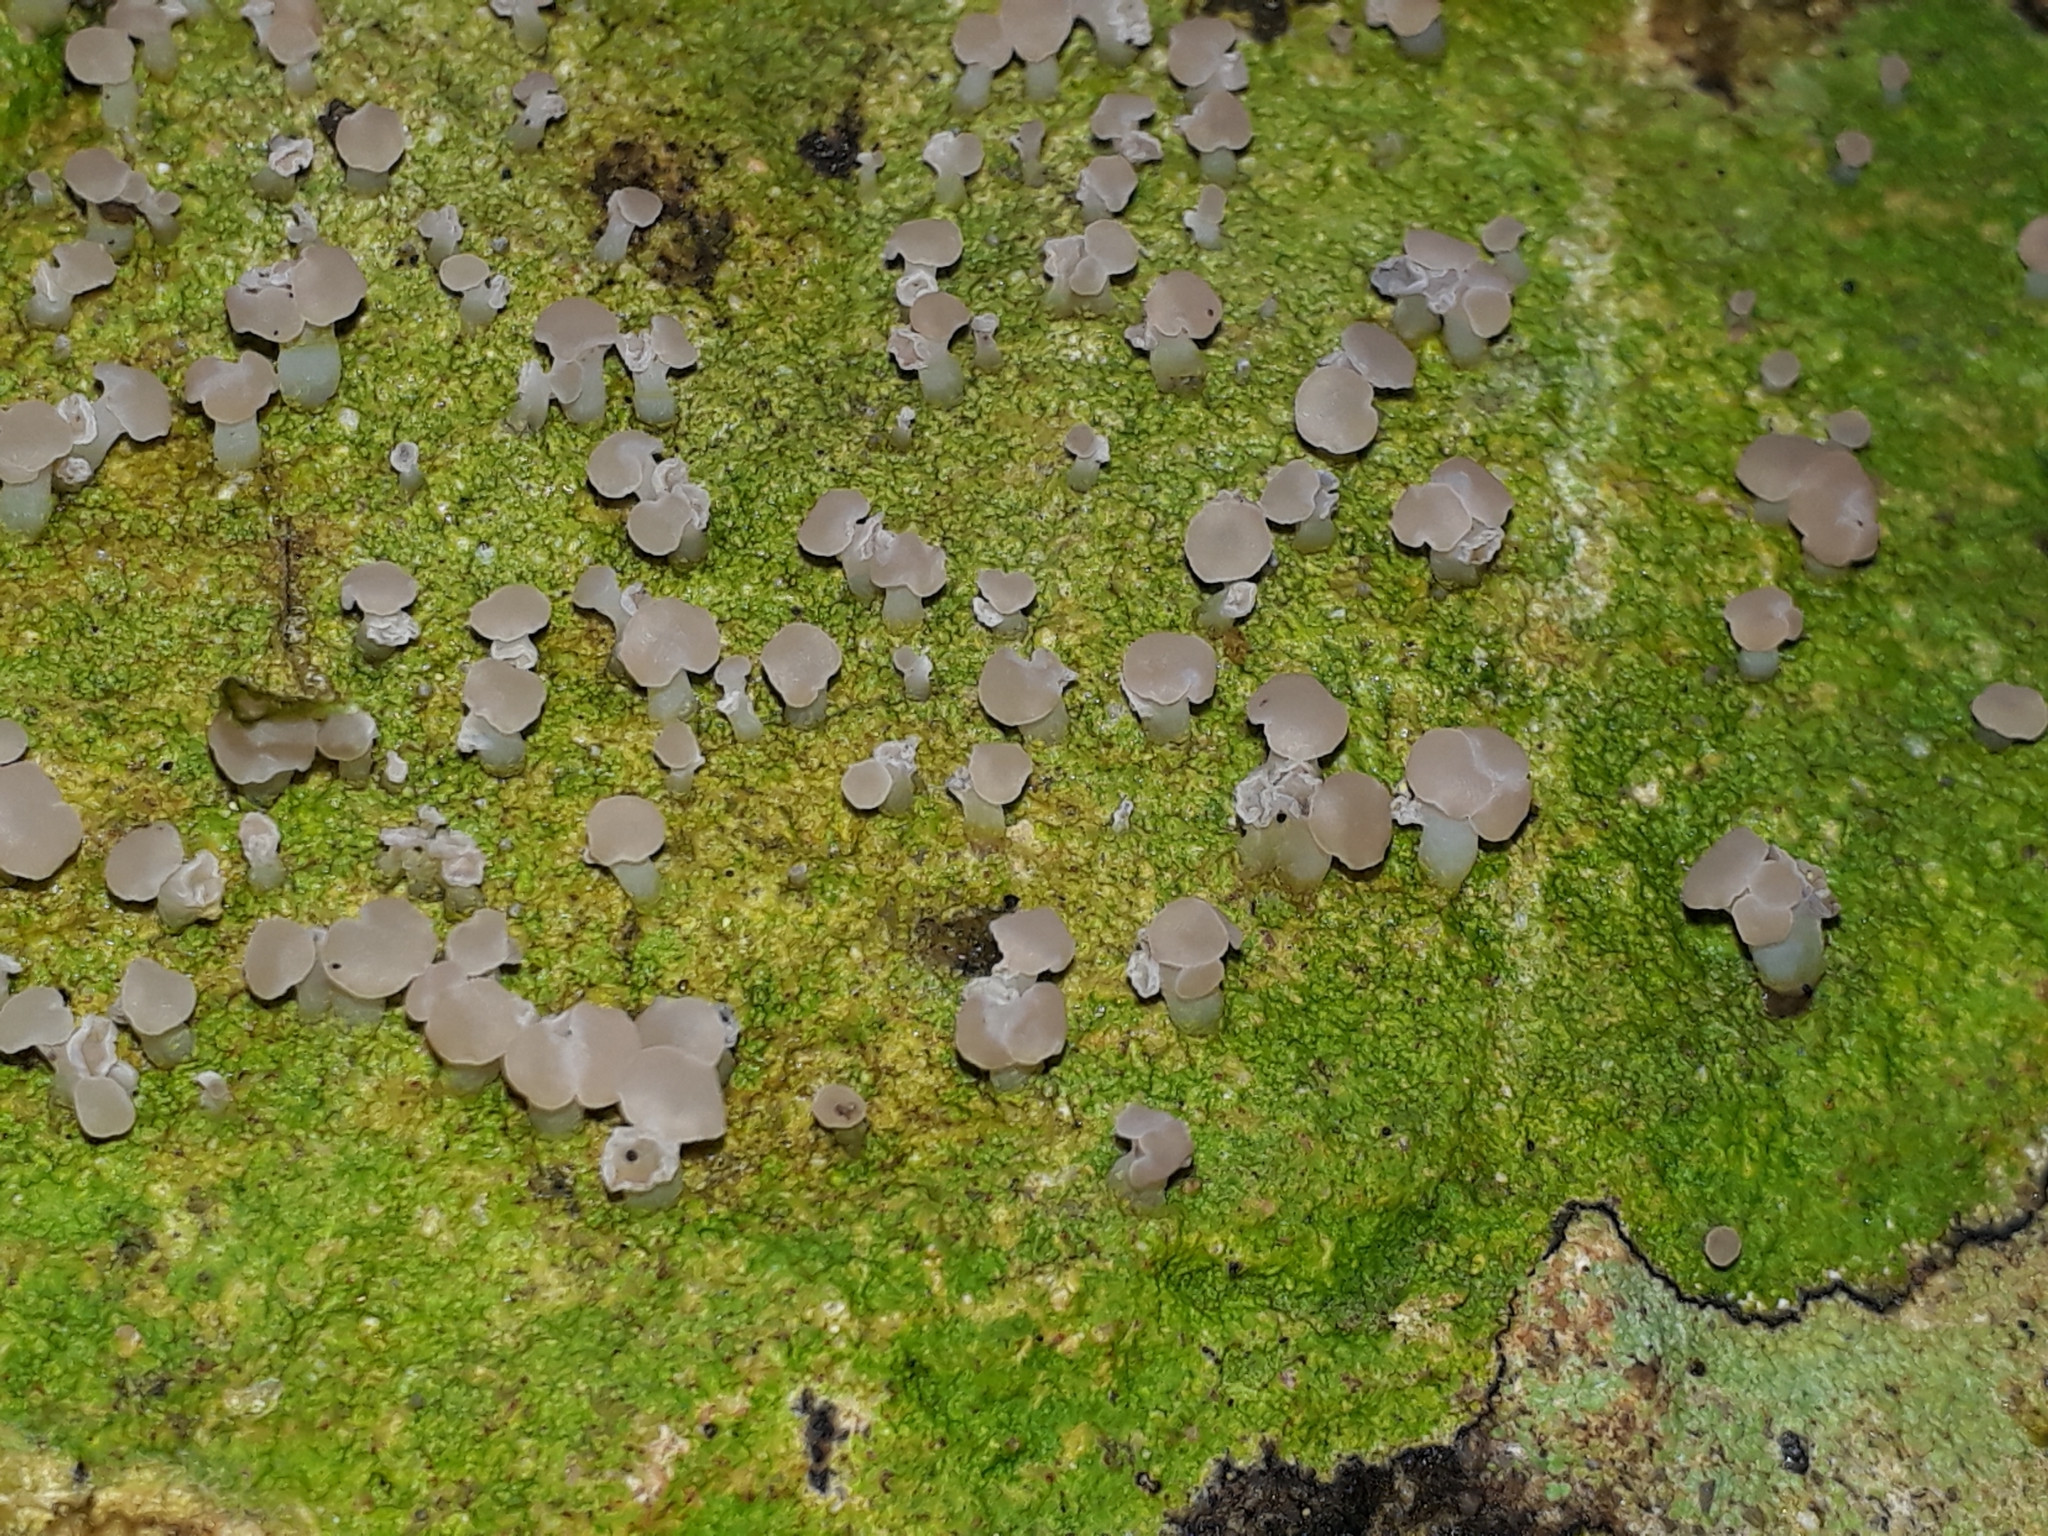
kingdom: Fungi
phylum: Ascomycota
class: Lecanoromycetes
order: Baeomycetales
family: Baeomycetaceae
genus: Baeomyces
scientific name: Baeomyces heteromorphus
